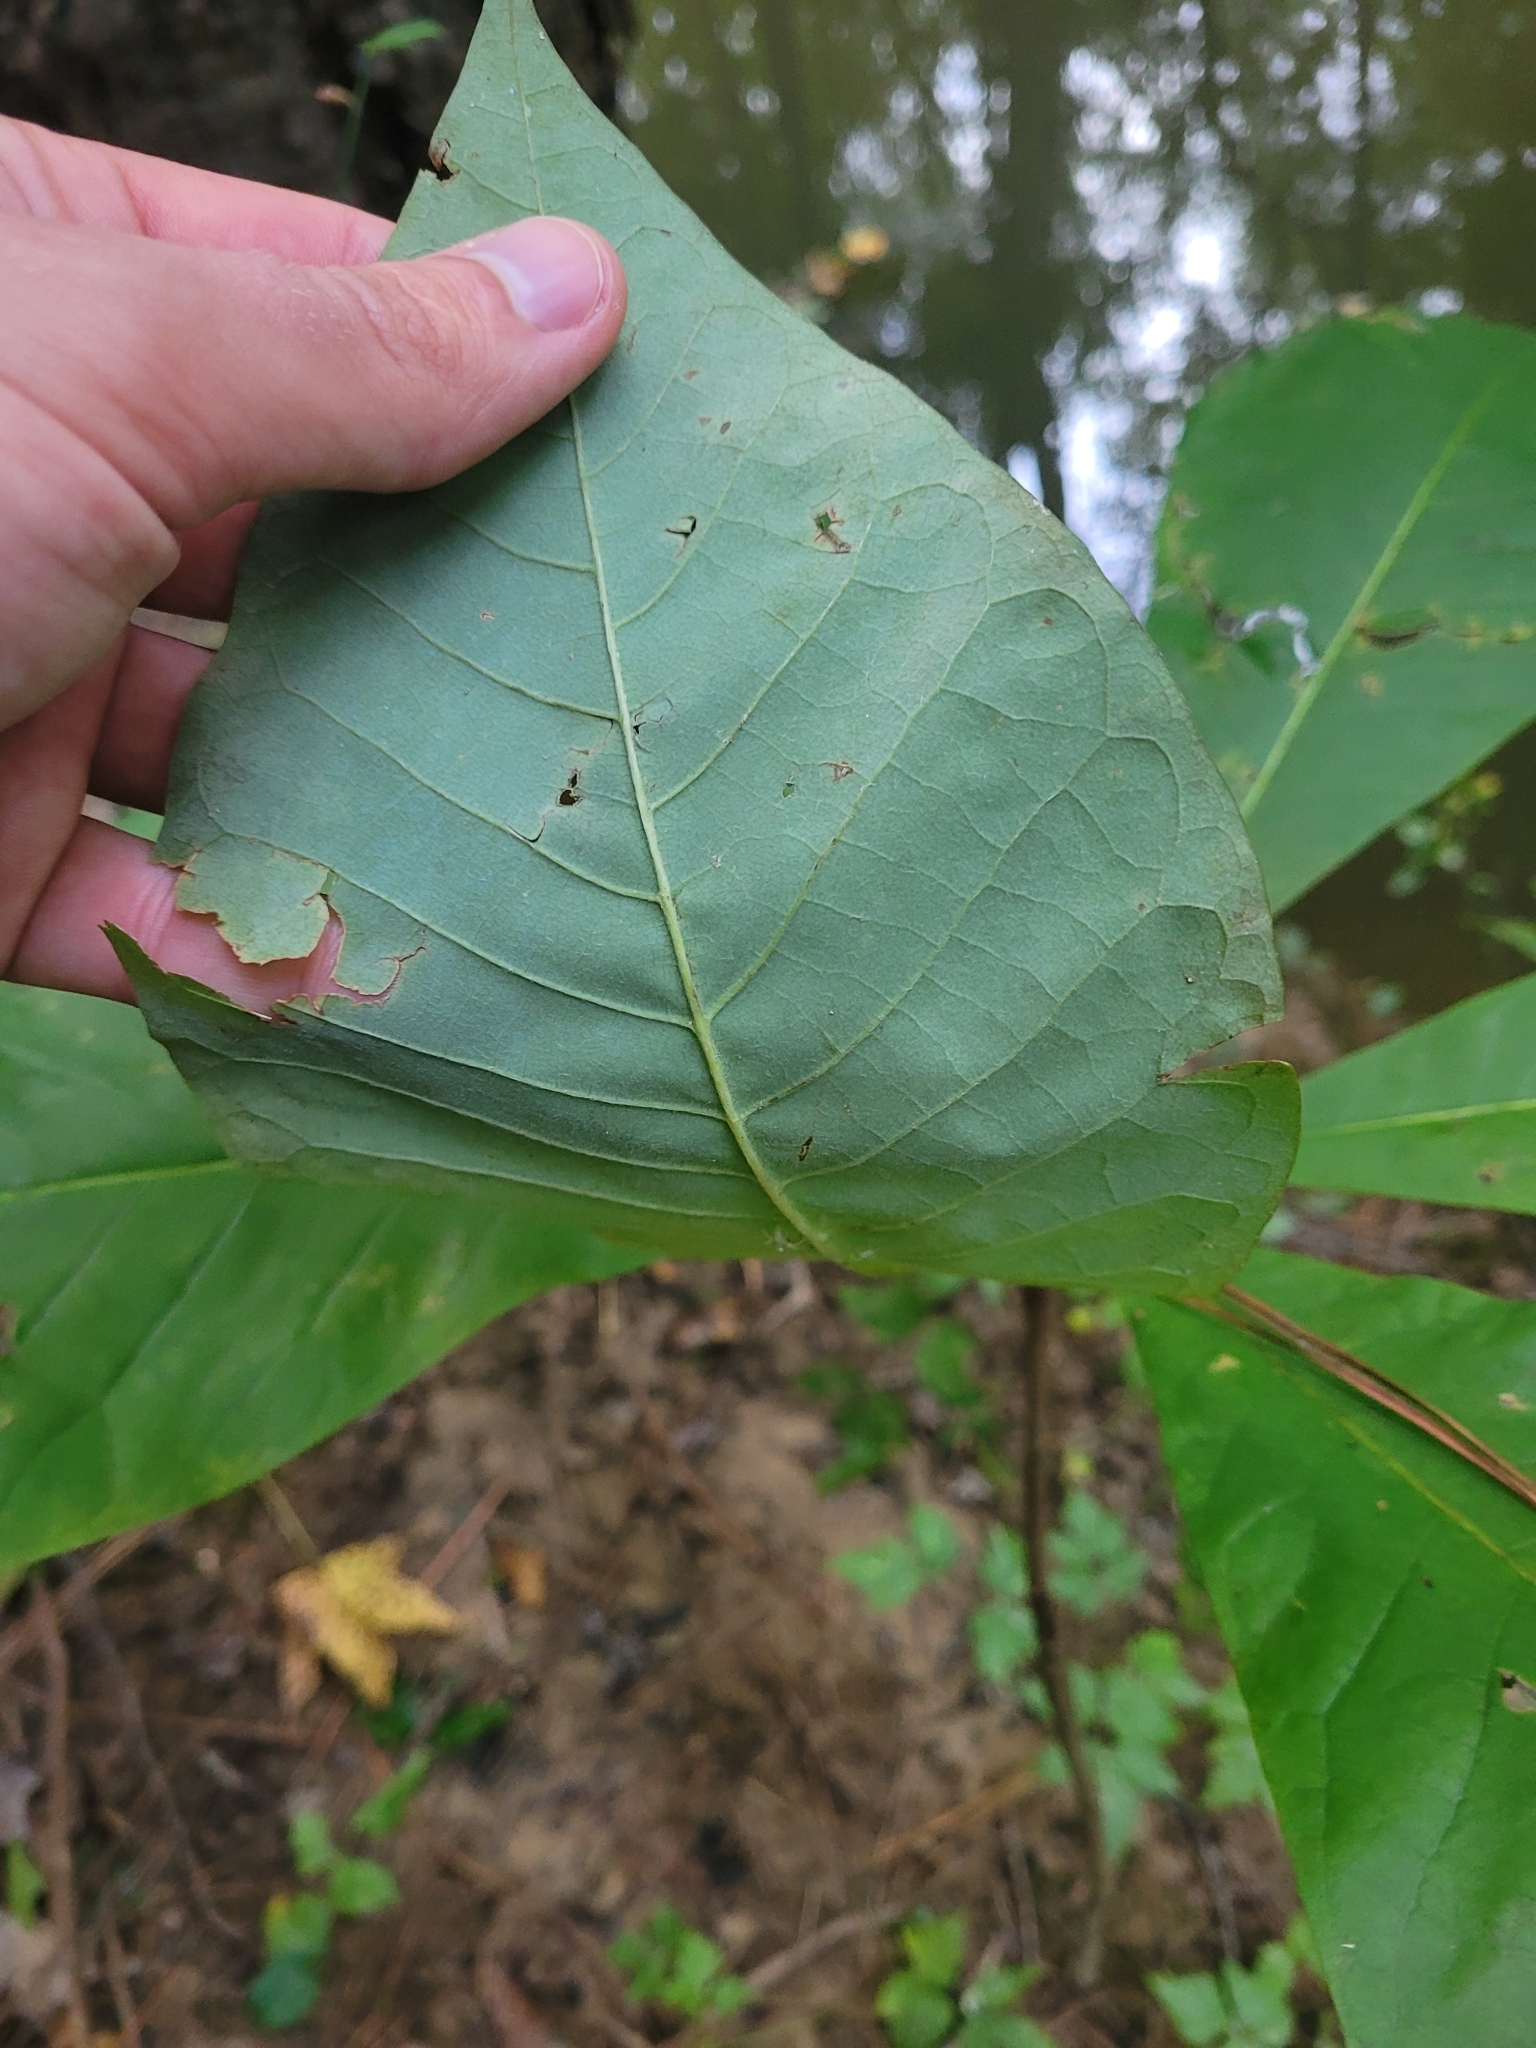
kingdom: Plantae
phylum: Tracheophyta
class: Magnoliopsida
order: Magnoliales
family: Magnoliaceae
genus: Magnolia
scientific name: Magnolia tripetala
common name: Umbrella magnolia
